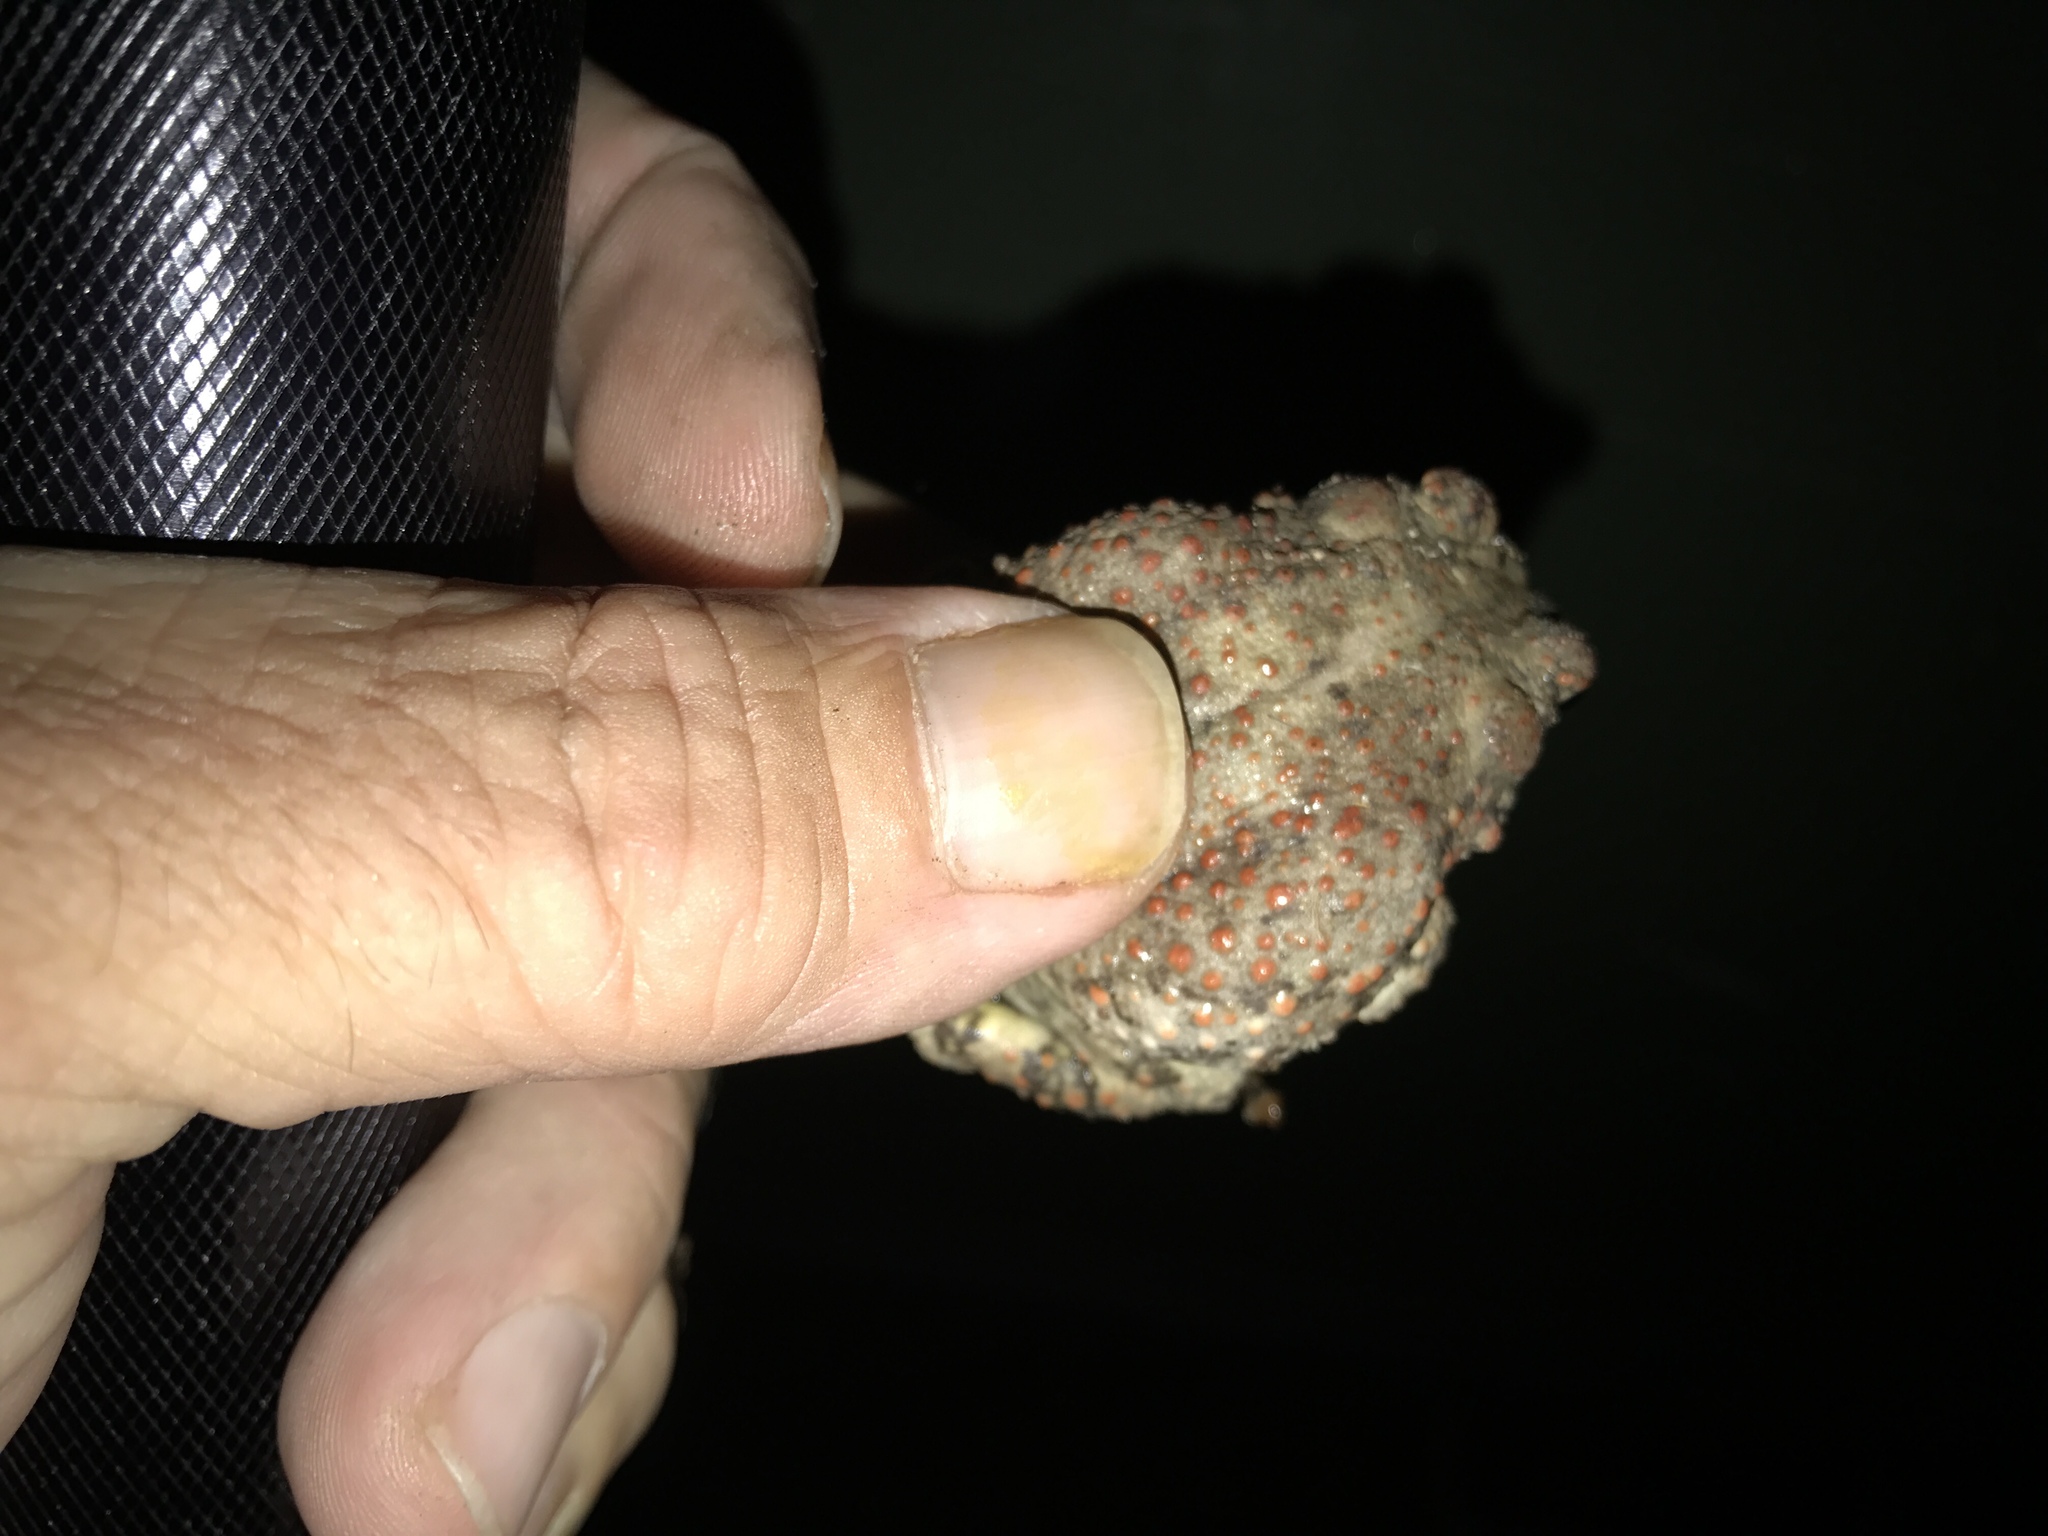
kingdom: Animalia
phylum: Chordata
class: Amphibia
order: Anura
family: Bufonidae
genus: Anaxyrus
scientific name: Anaxyrus punctatus
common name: Red-spotted toad
